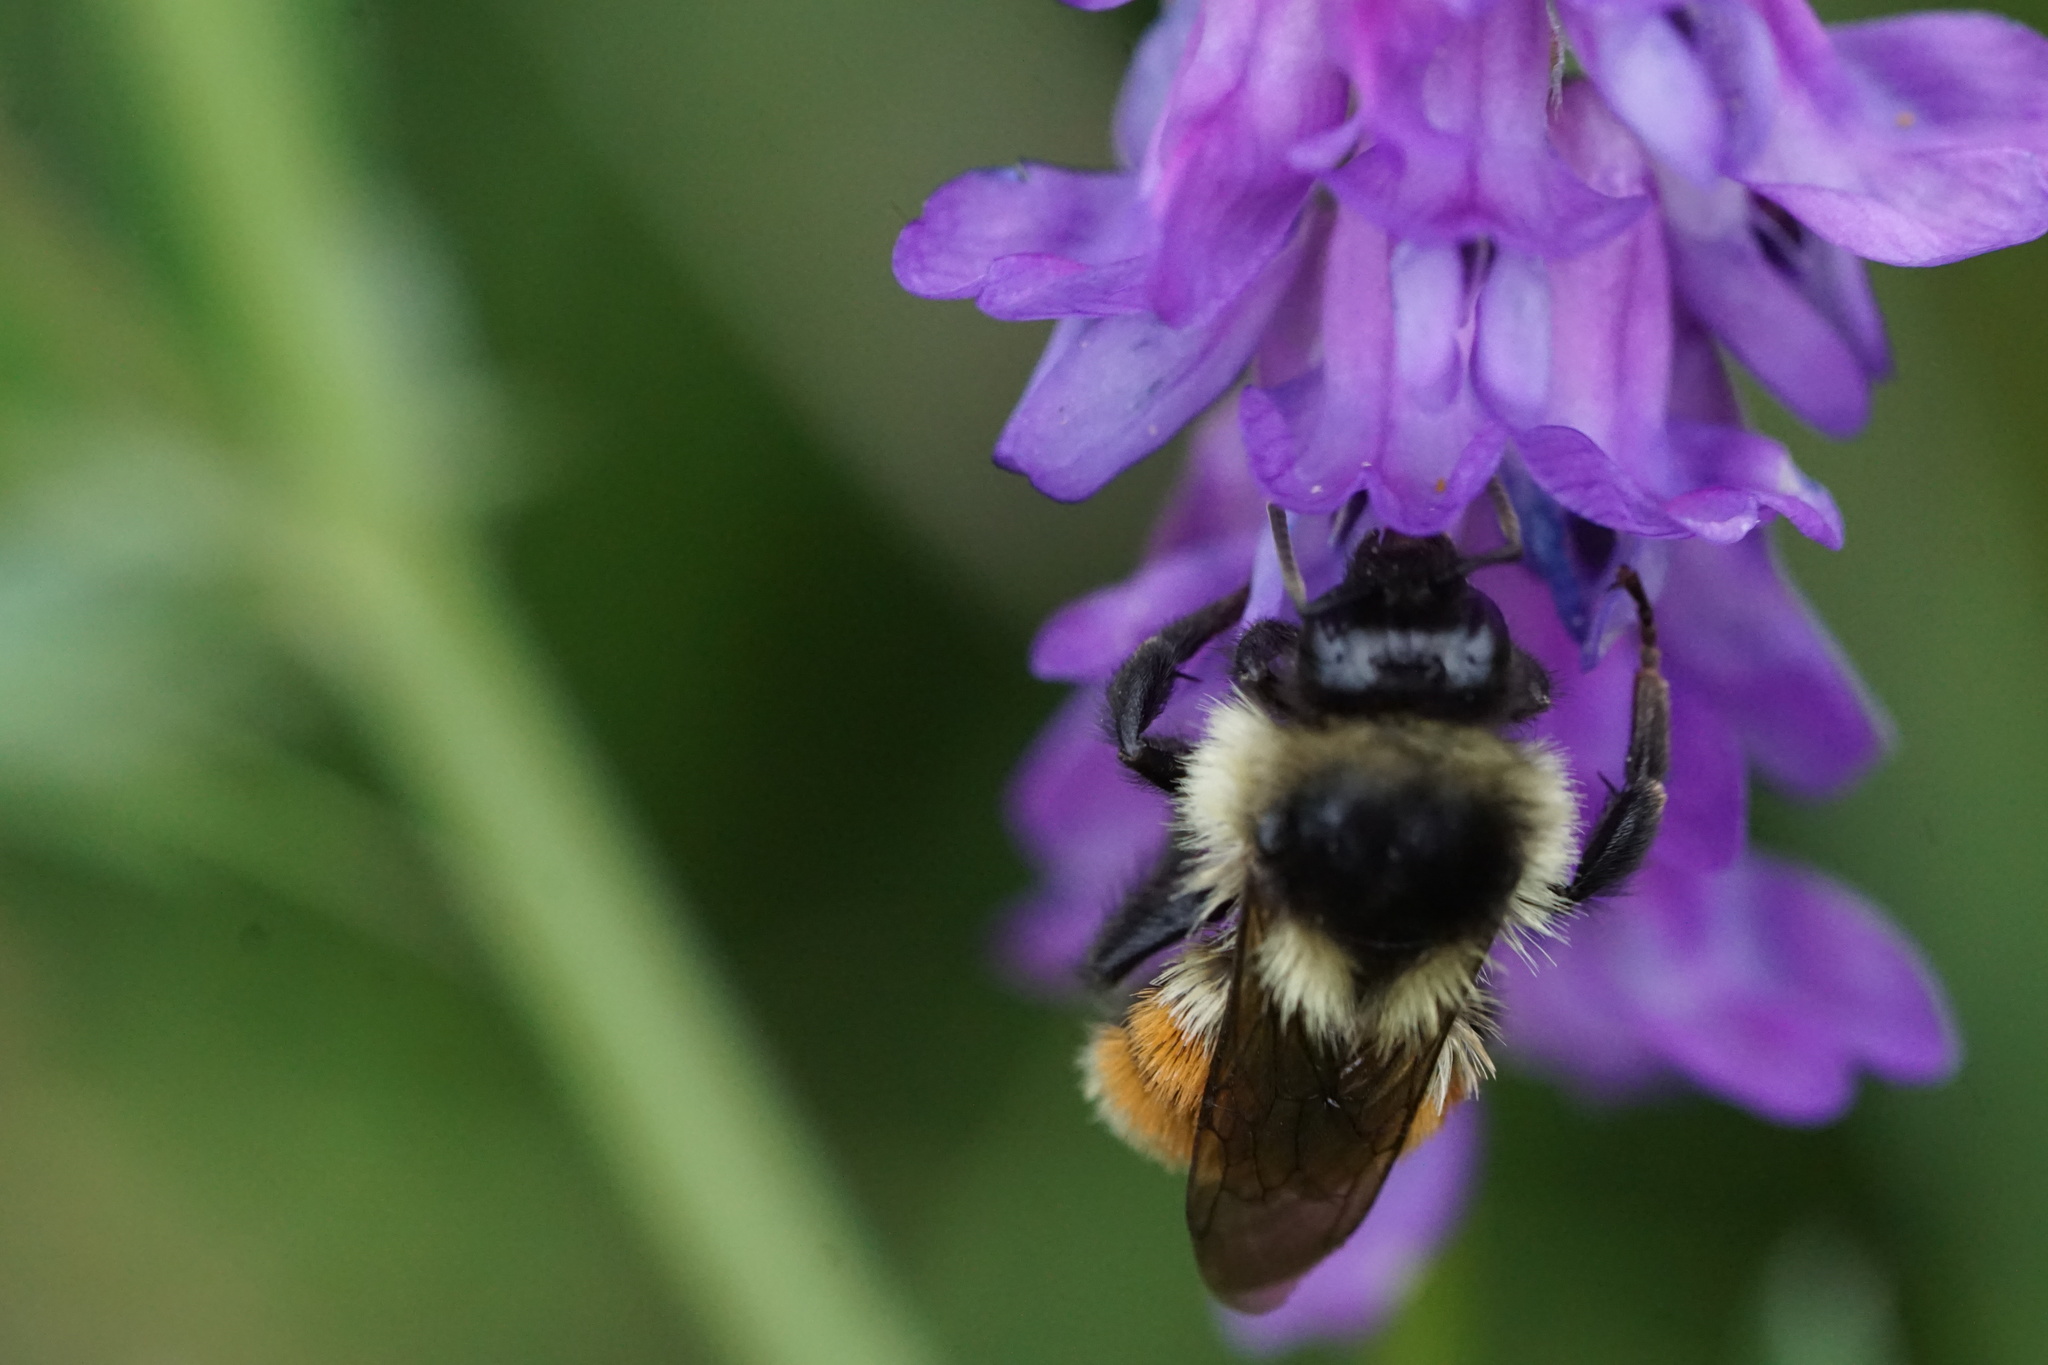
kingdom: Animalia
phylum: Arthropoda
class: Insecta
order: Hymenoptera
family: Apidae
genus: Bombus
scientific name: Bombus ternarius
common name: Tri-colored bumble bee
